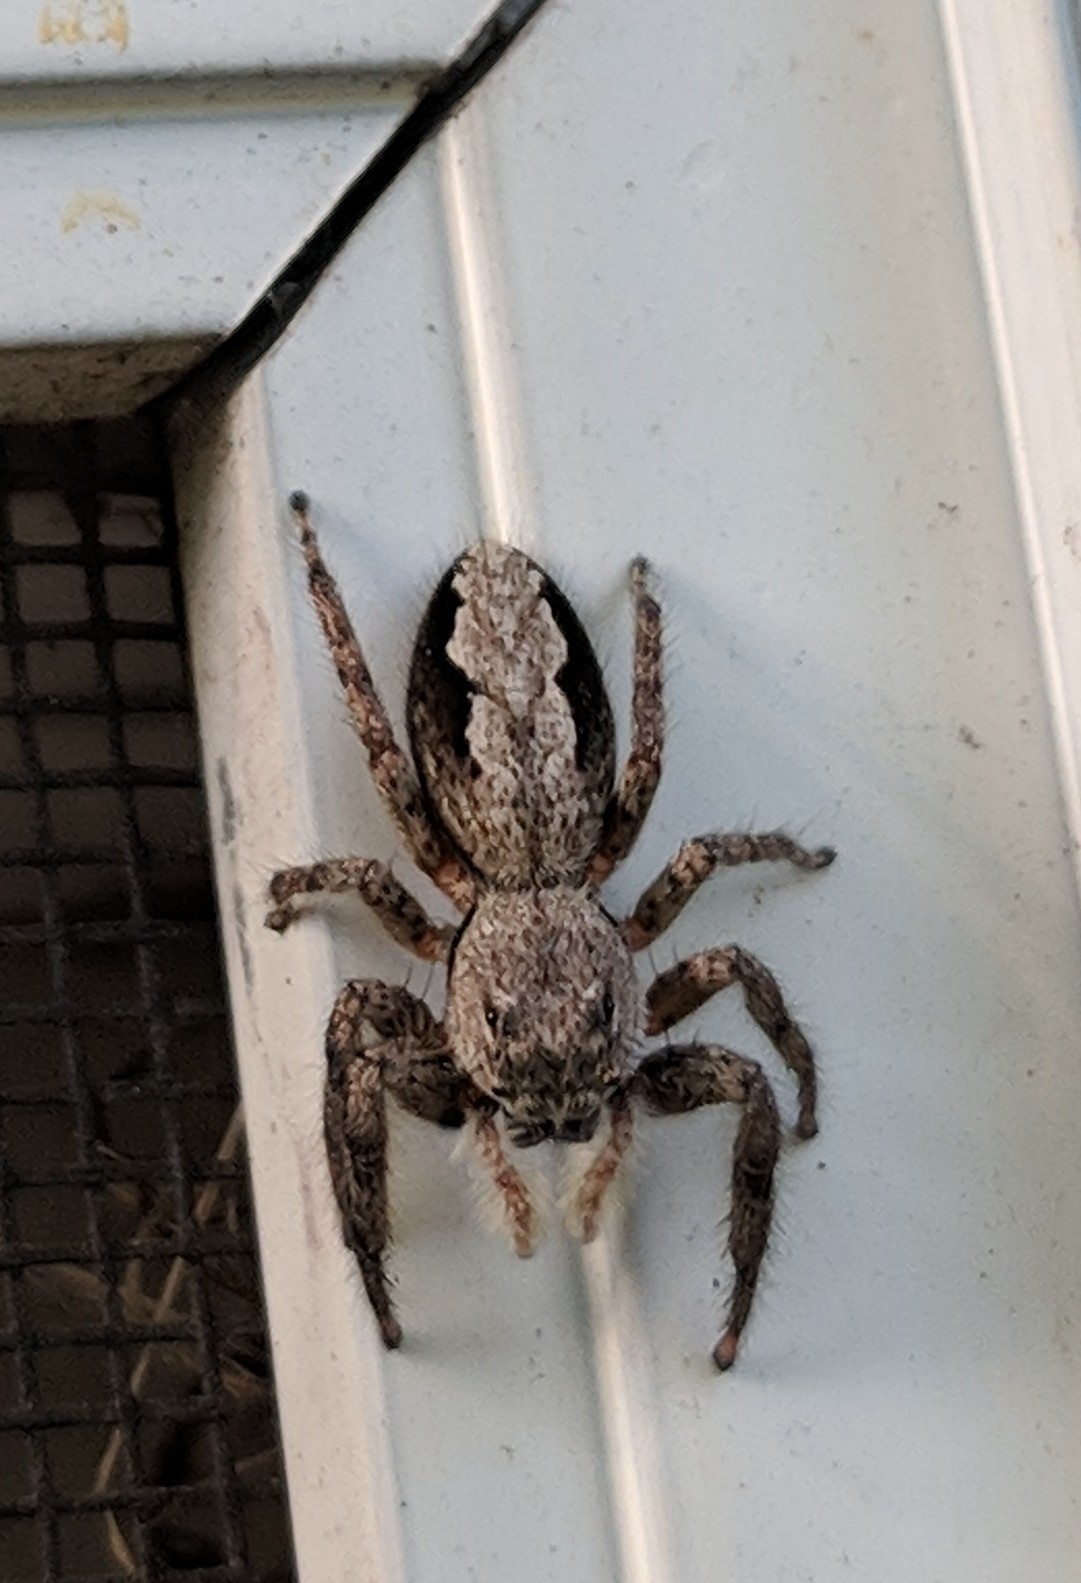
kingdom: Animalia
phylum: Arthropoda
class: Arachnida
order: Araneae
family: Salticidae
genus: Platycryptus
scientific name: Platycryptus undatus
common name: Tan jumping spider
